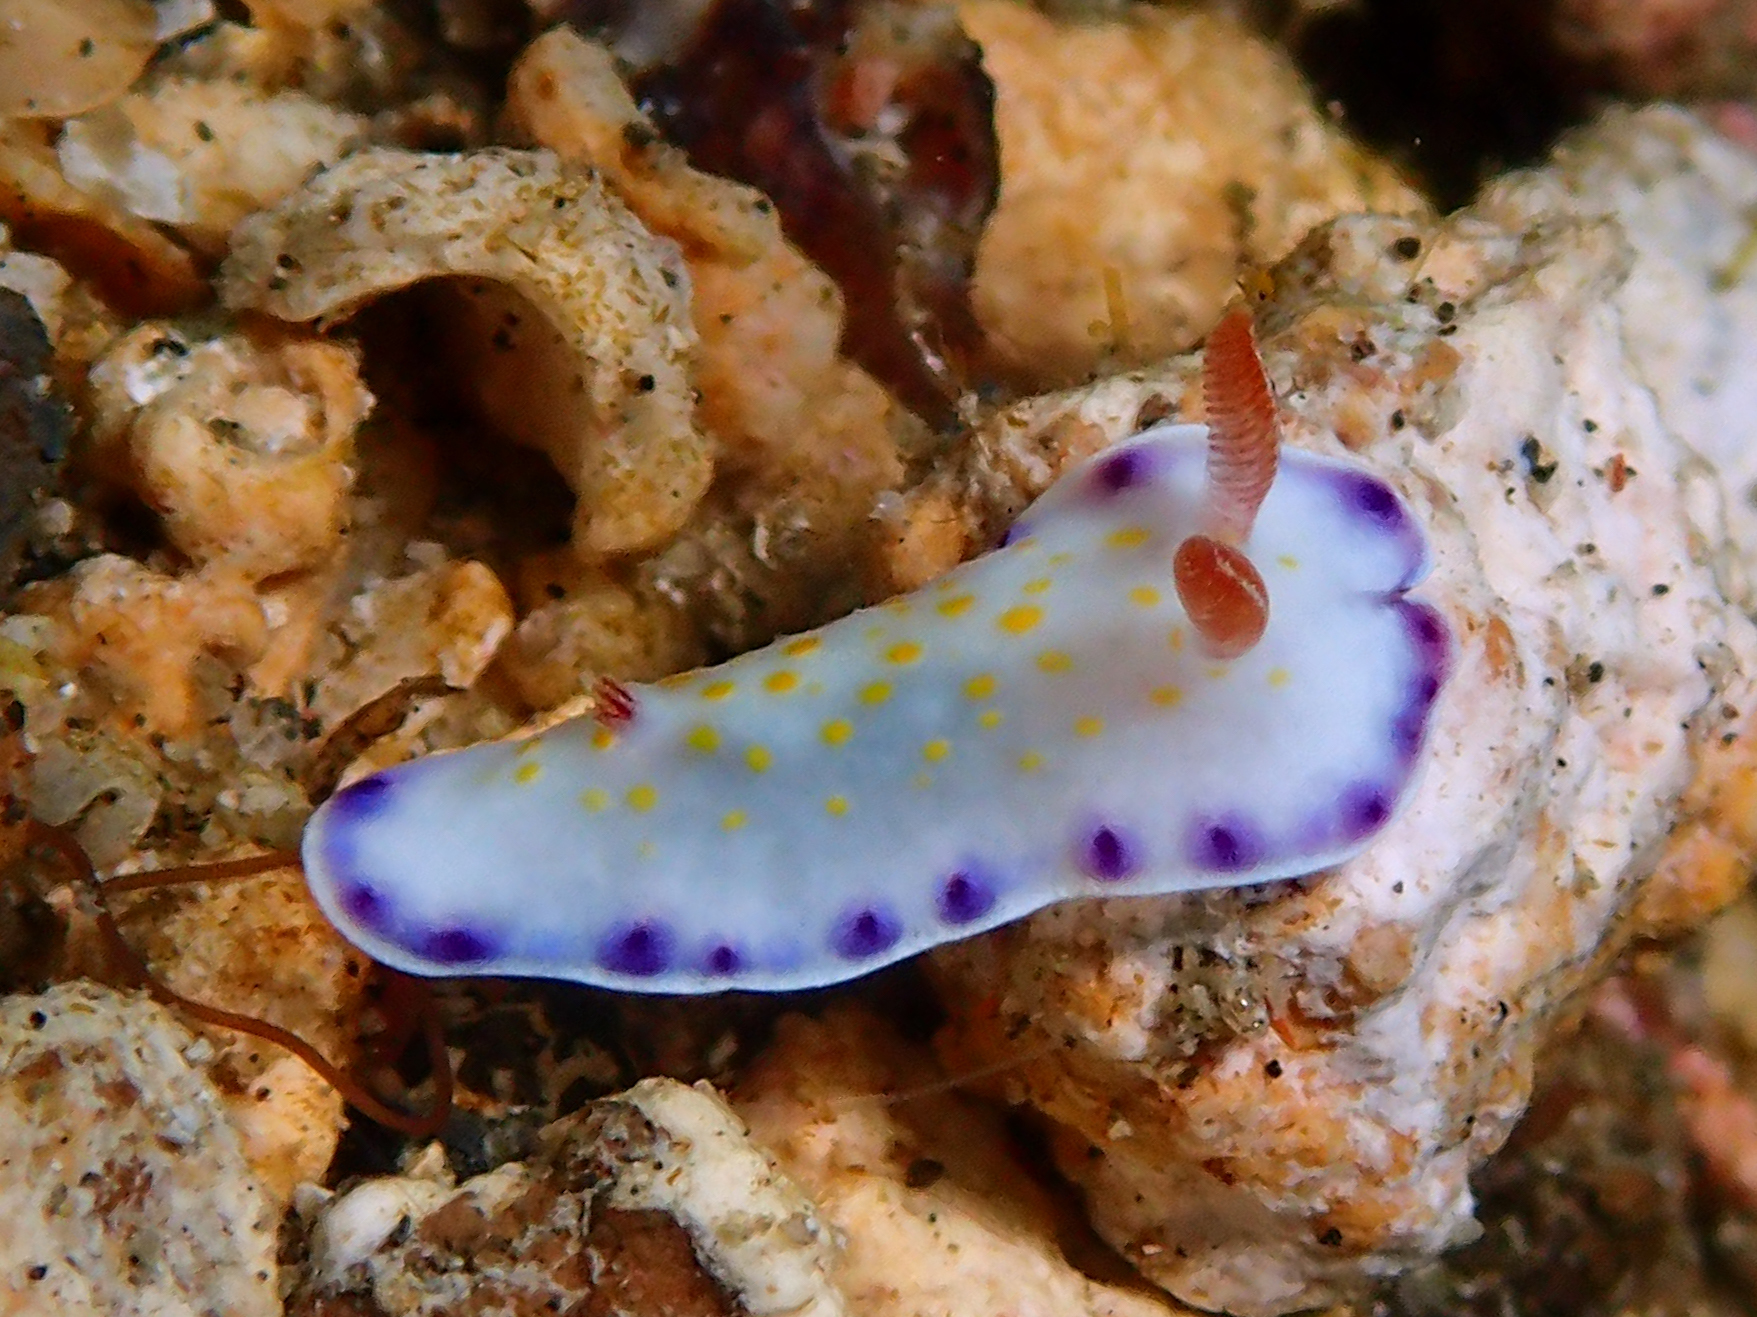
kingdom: Animalia
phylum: Mollusca
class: Gastropoda
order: Nudibranchia
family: Chromodorididae
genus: Goniobranchus
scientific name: Goniobranchus aureopurpureus
